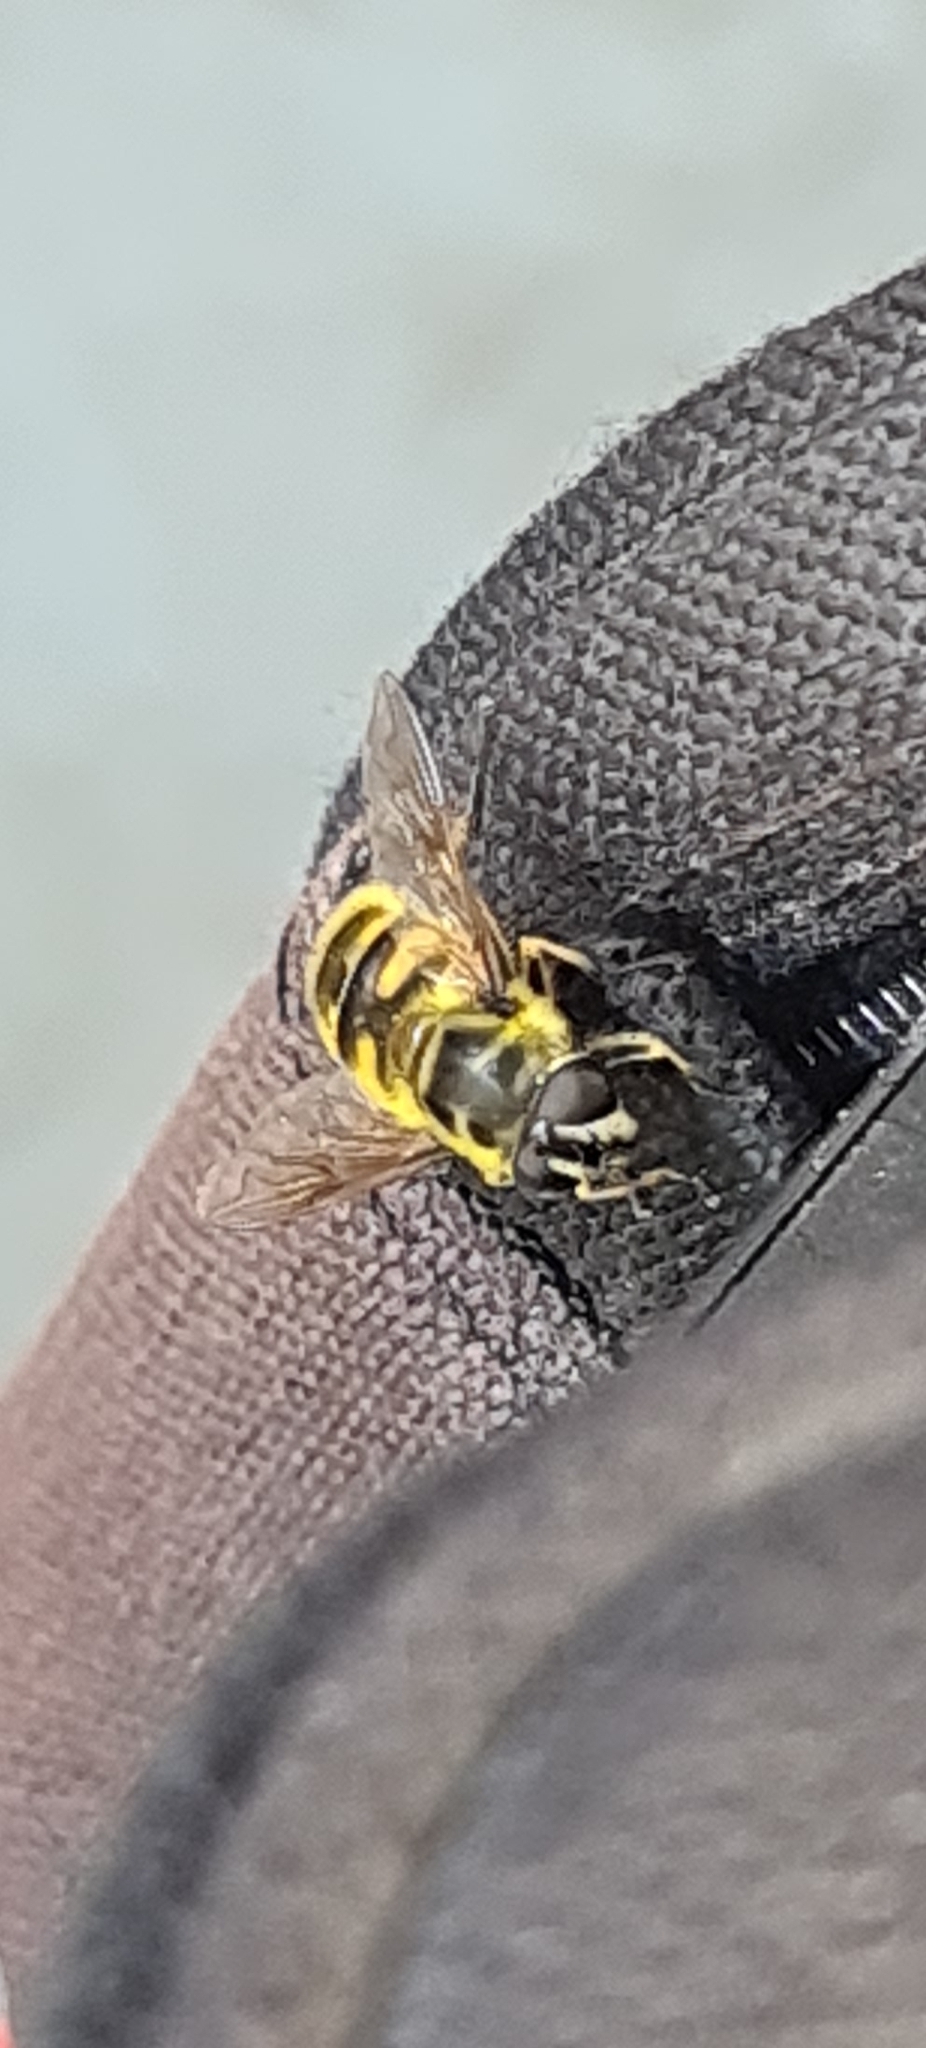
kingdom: Animalia
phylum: Arthropoda
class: Insecta
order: Diptera
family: Syrphidae
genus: Myathropa
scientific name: Myathropa florea
